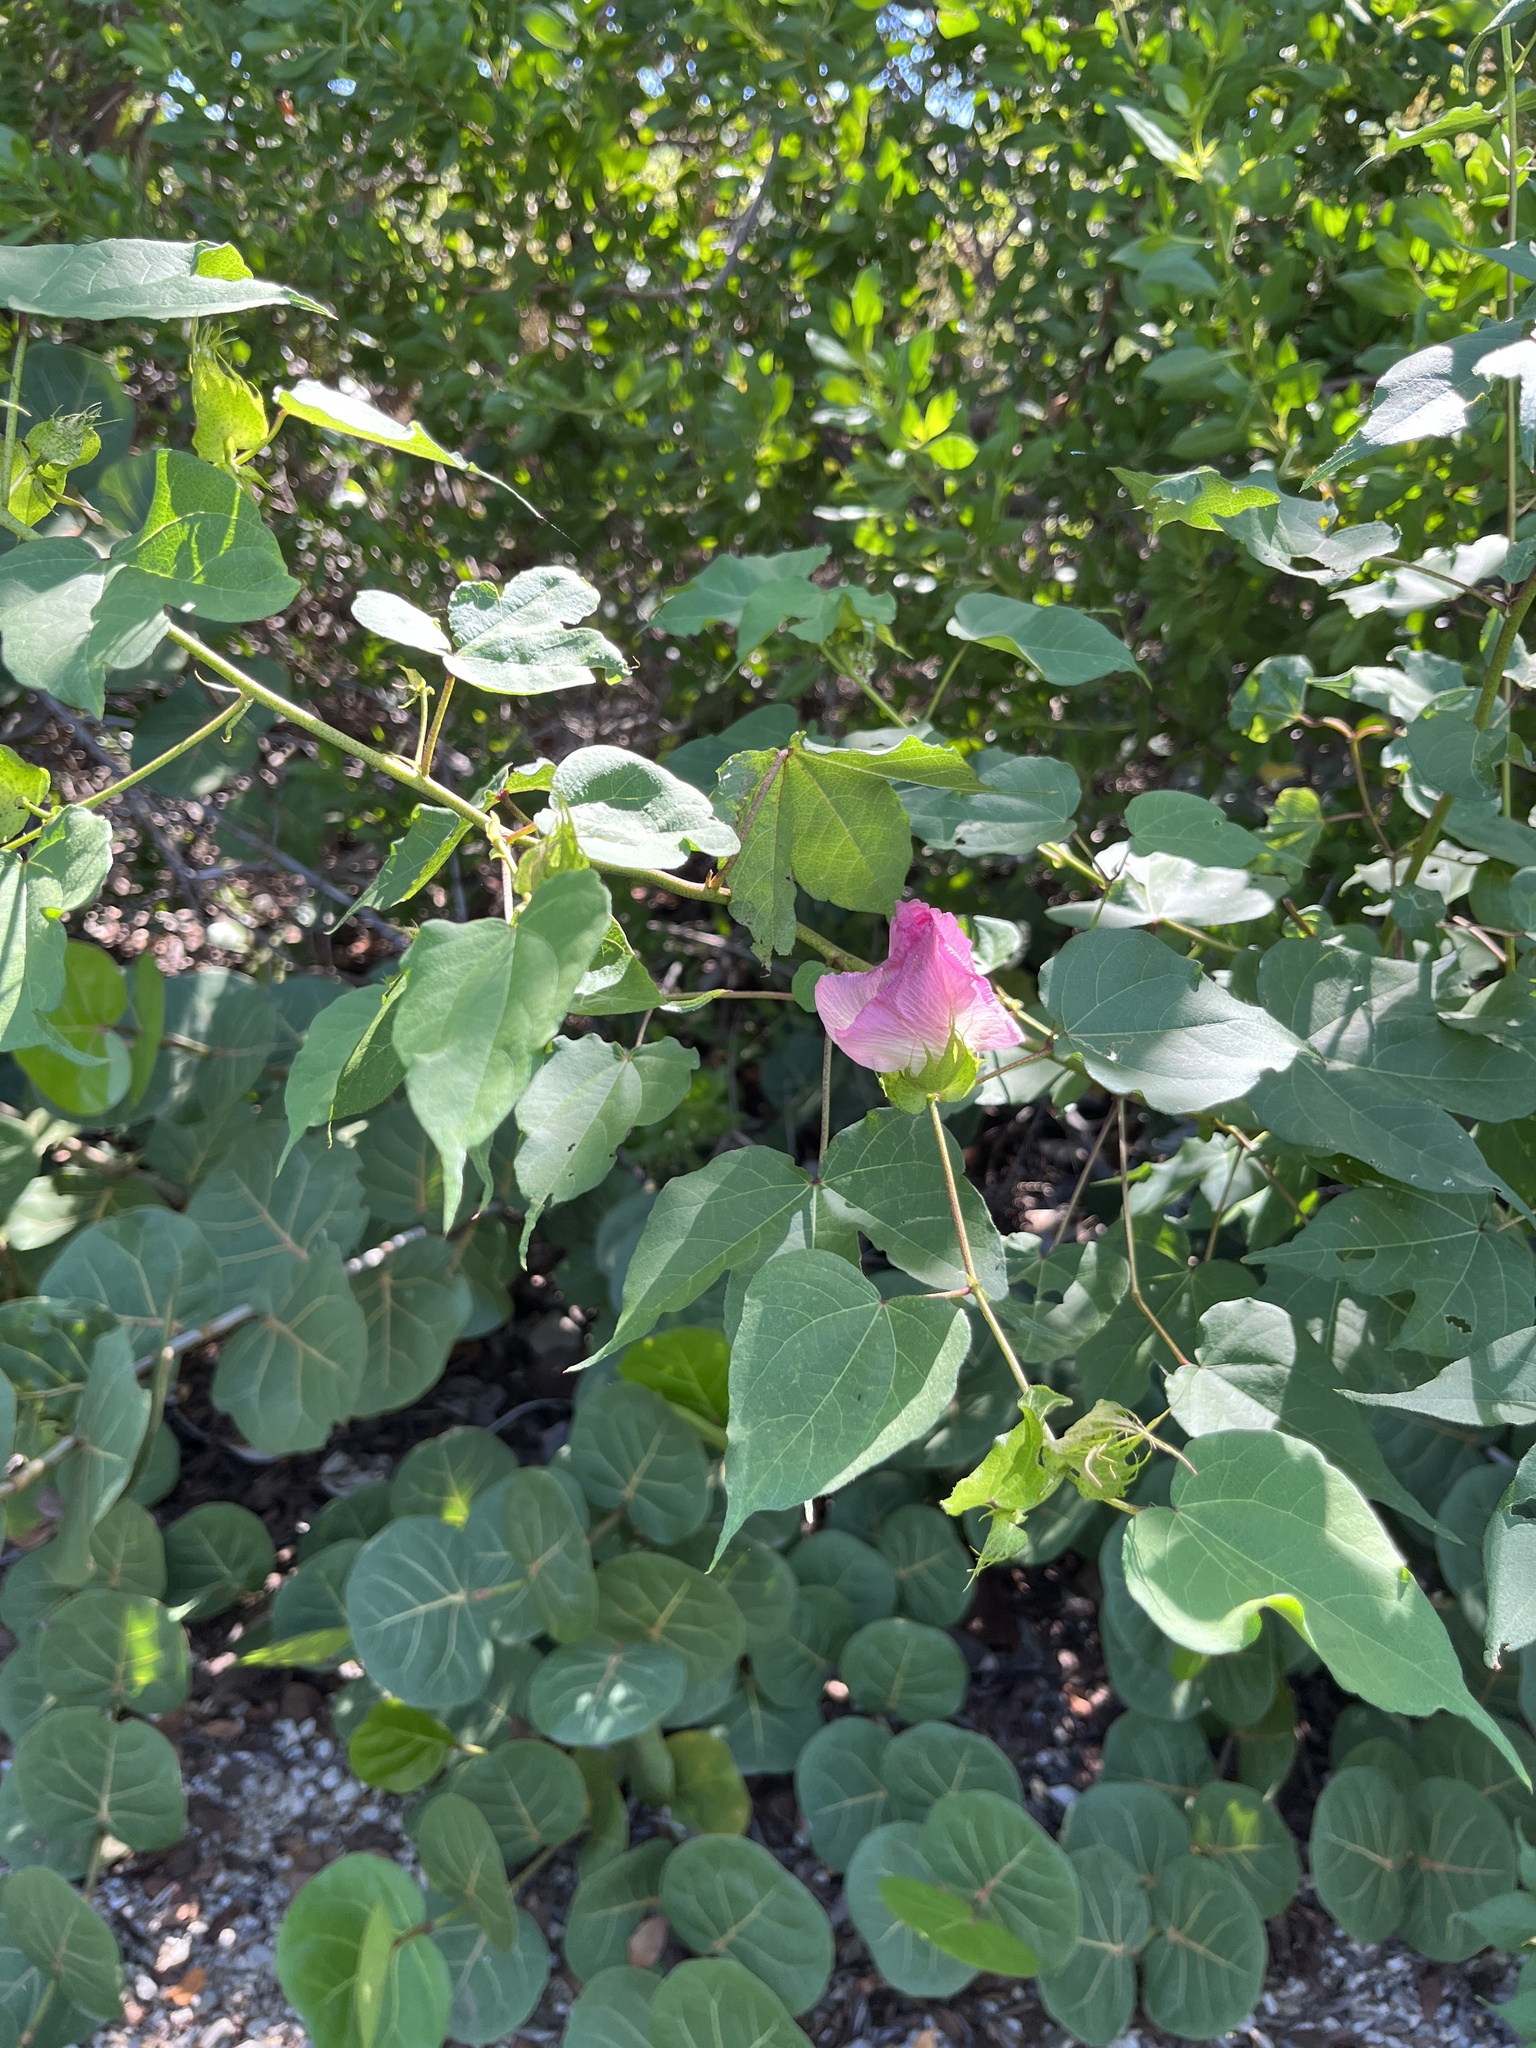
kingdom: Plantae
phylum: Tracheophyta
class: Magnoliopsida
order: Malvales
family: Malvaceae
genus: Gossypium
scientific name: Gossypium hirsutum
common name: Cotton
